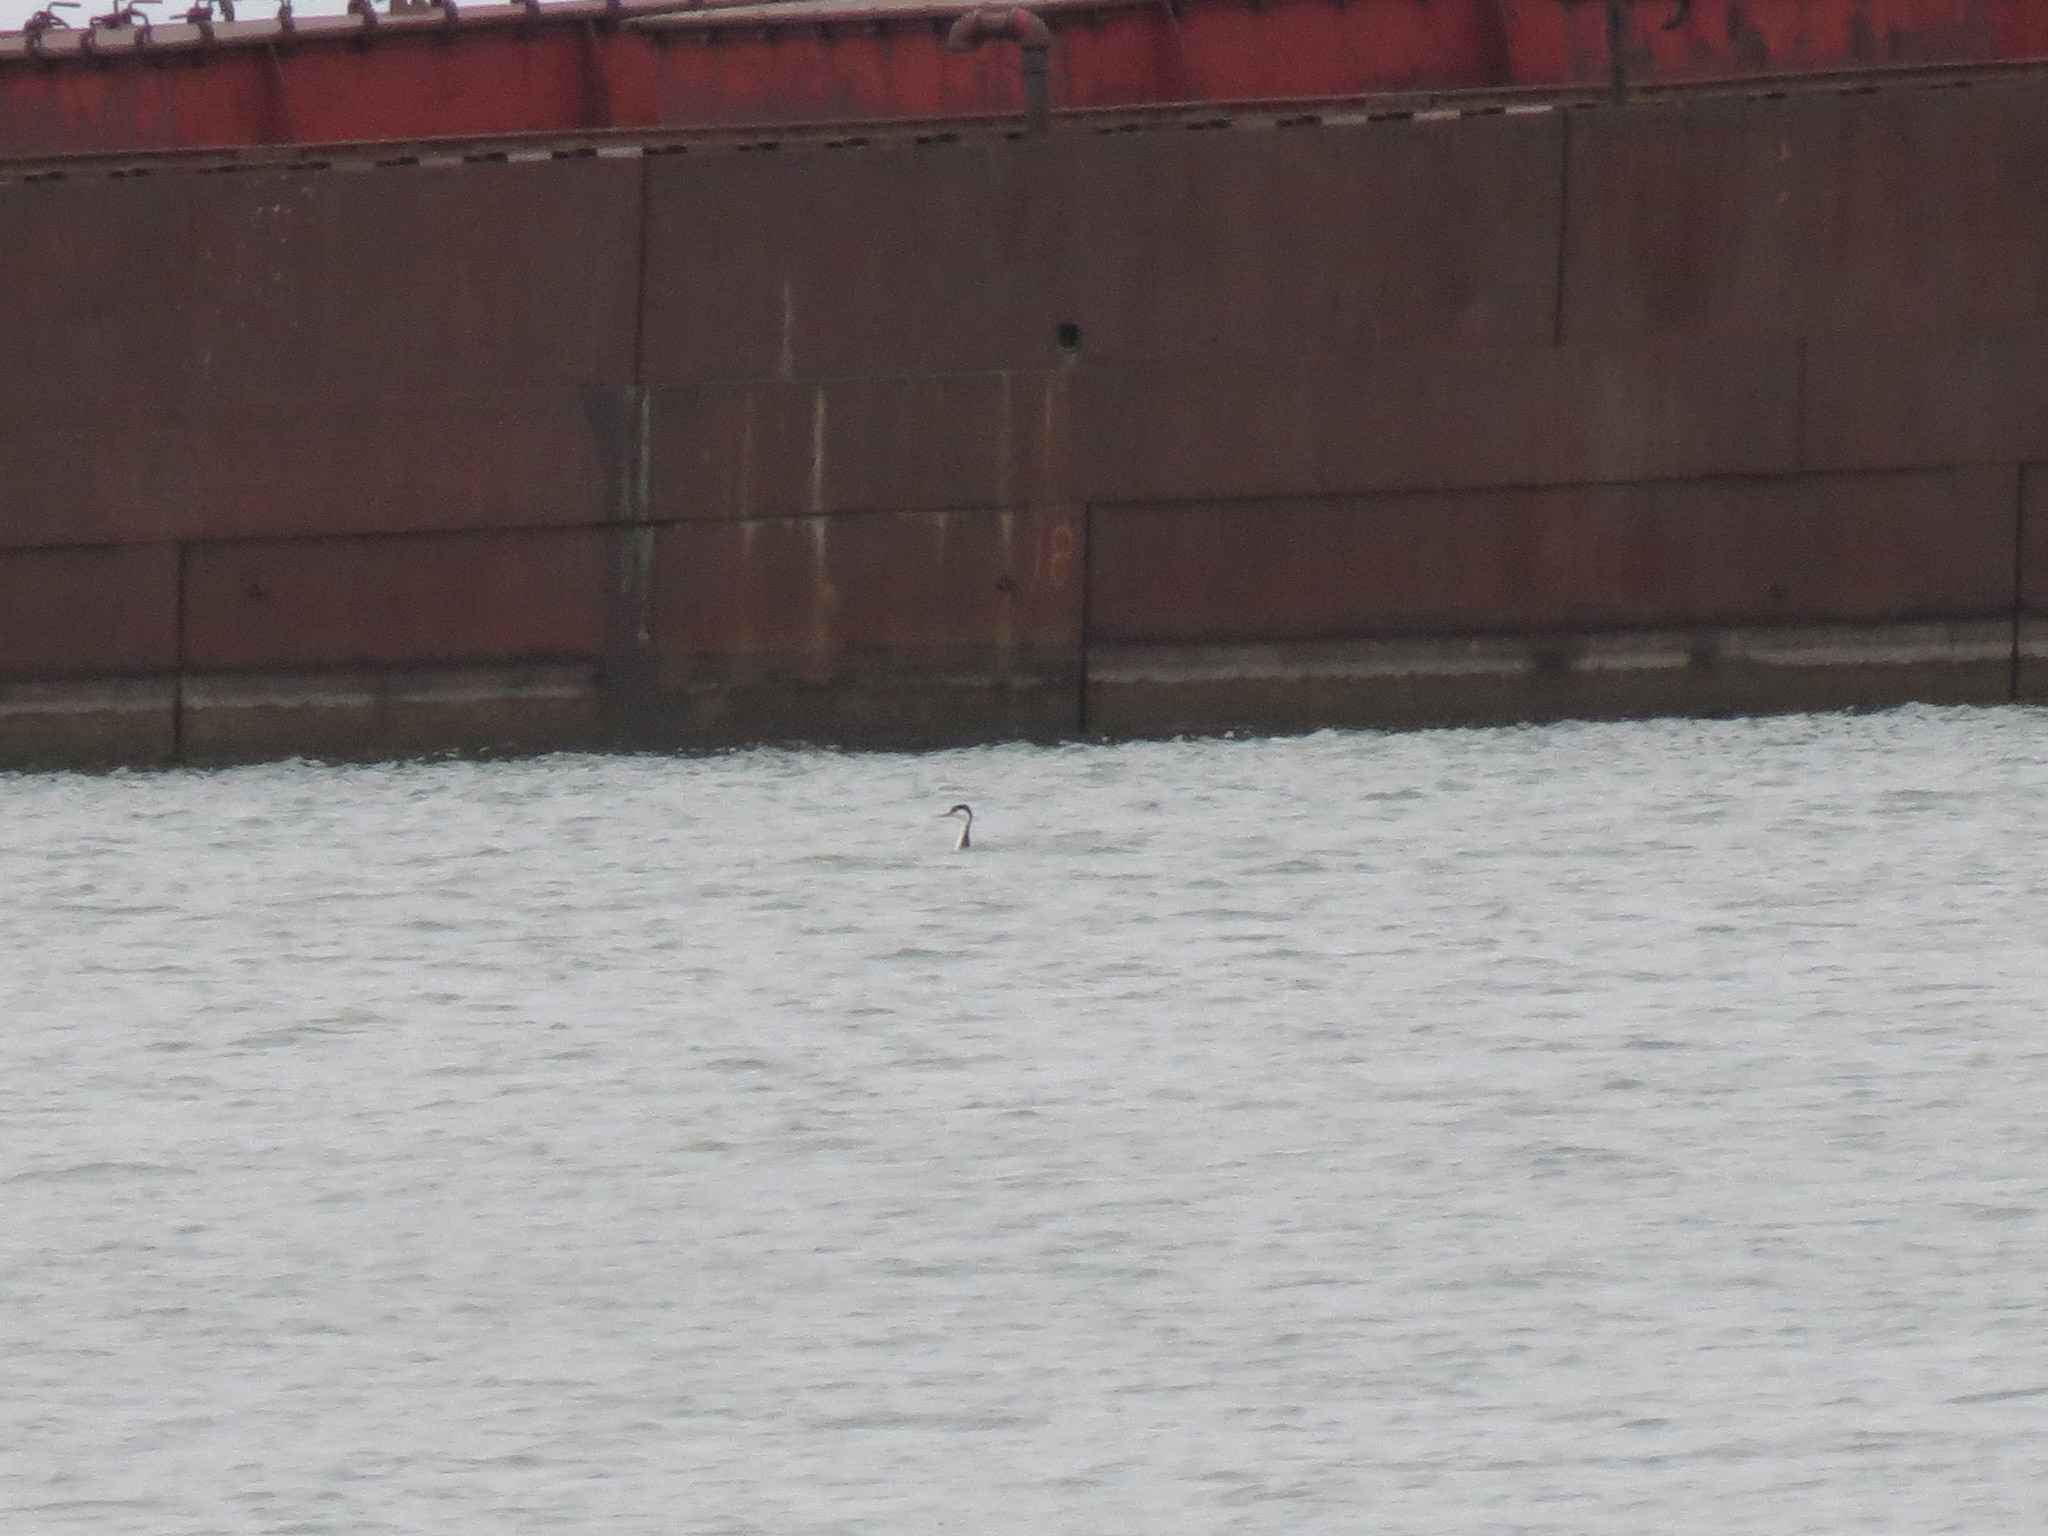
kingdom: Animalia
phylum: Chordata
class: Aves
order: Podicipediformes
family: Podicipedidae
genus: Aechmophorus
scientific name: Aechmophorus occidentalis
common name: Western grebe
